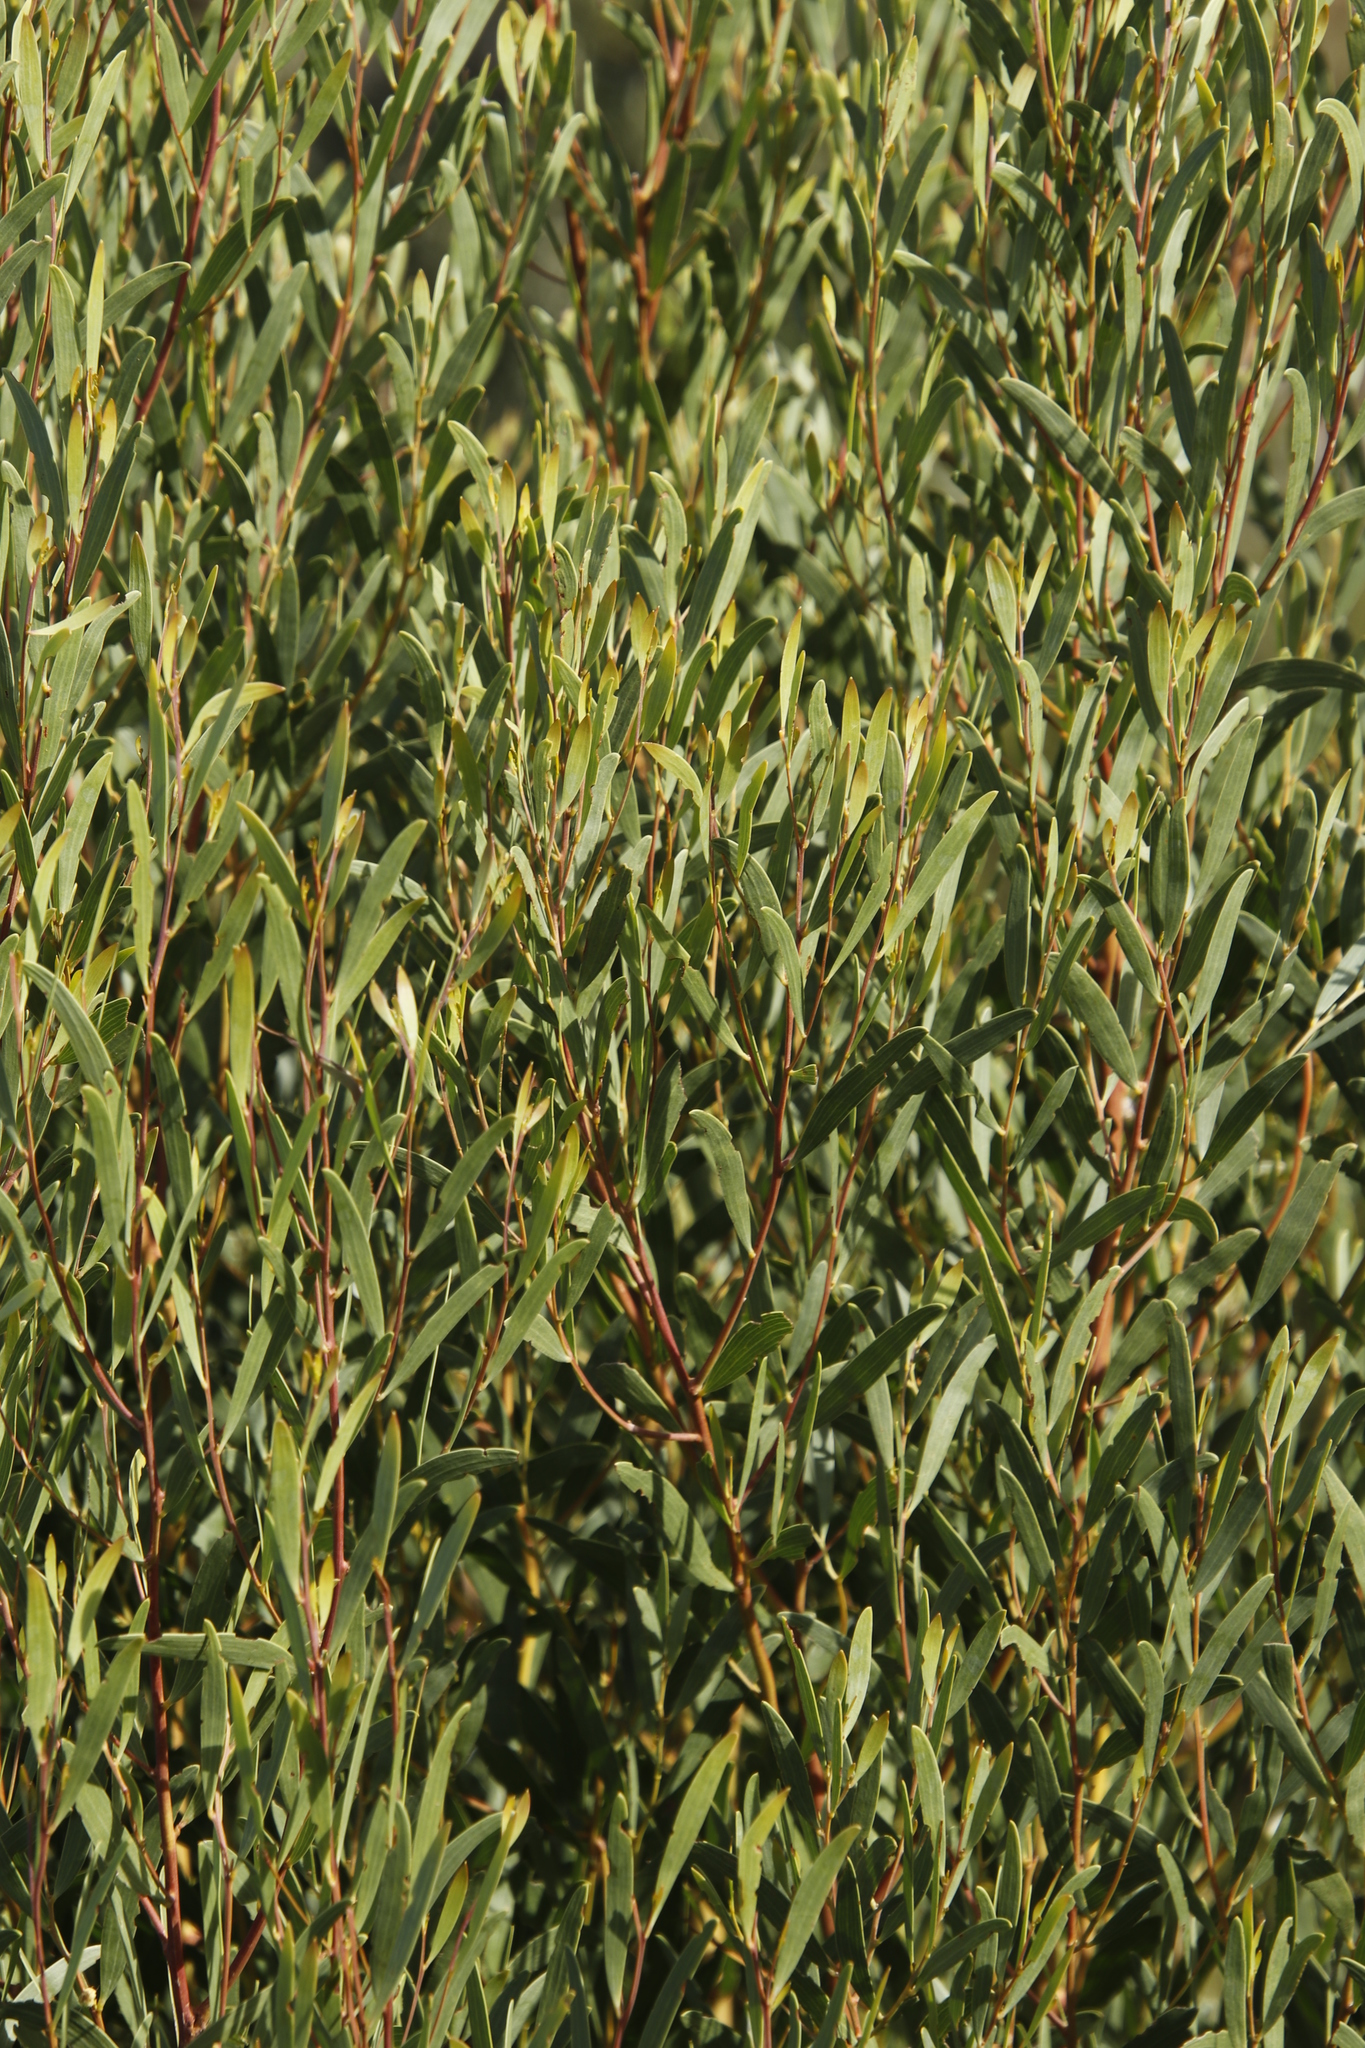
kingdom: Plantae
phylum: Tracheophyta
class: Magnoliopsida
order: Fabales
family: Fabaceae
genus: Acacia
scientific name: Acacia cyclops
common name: Coastal wattle
